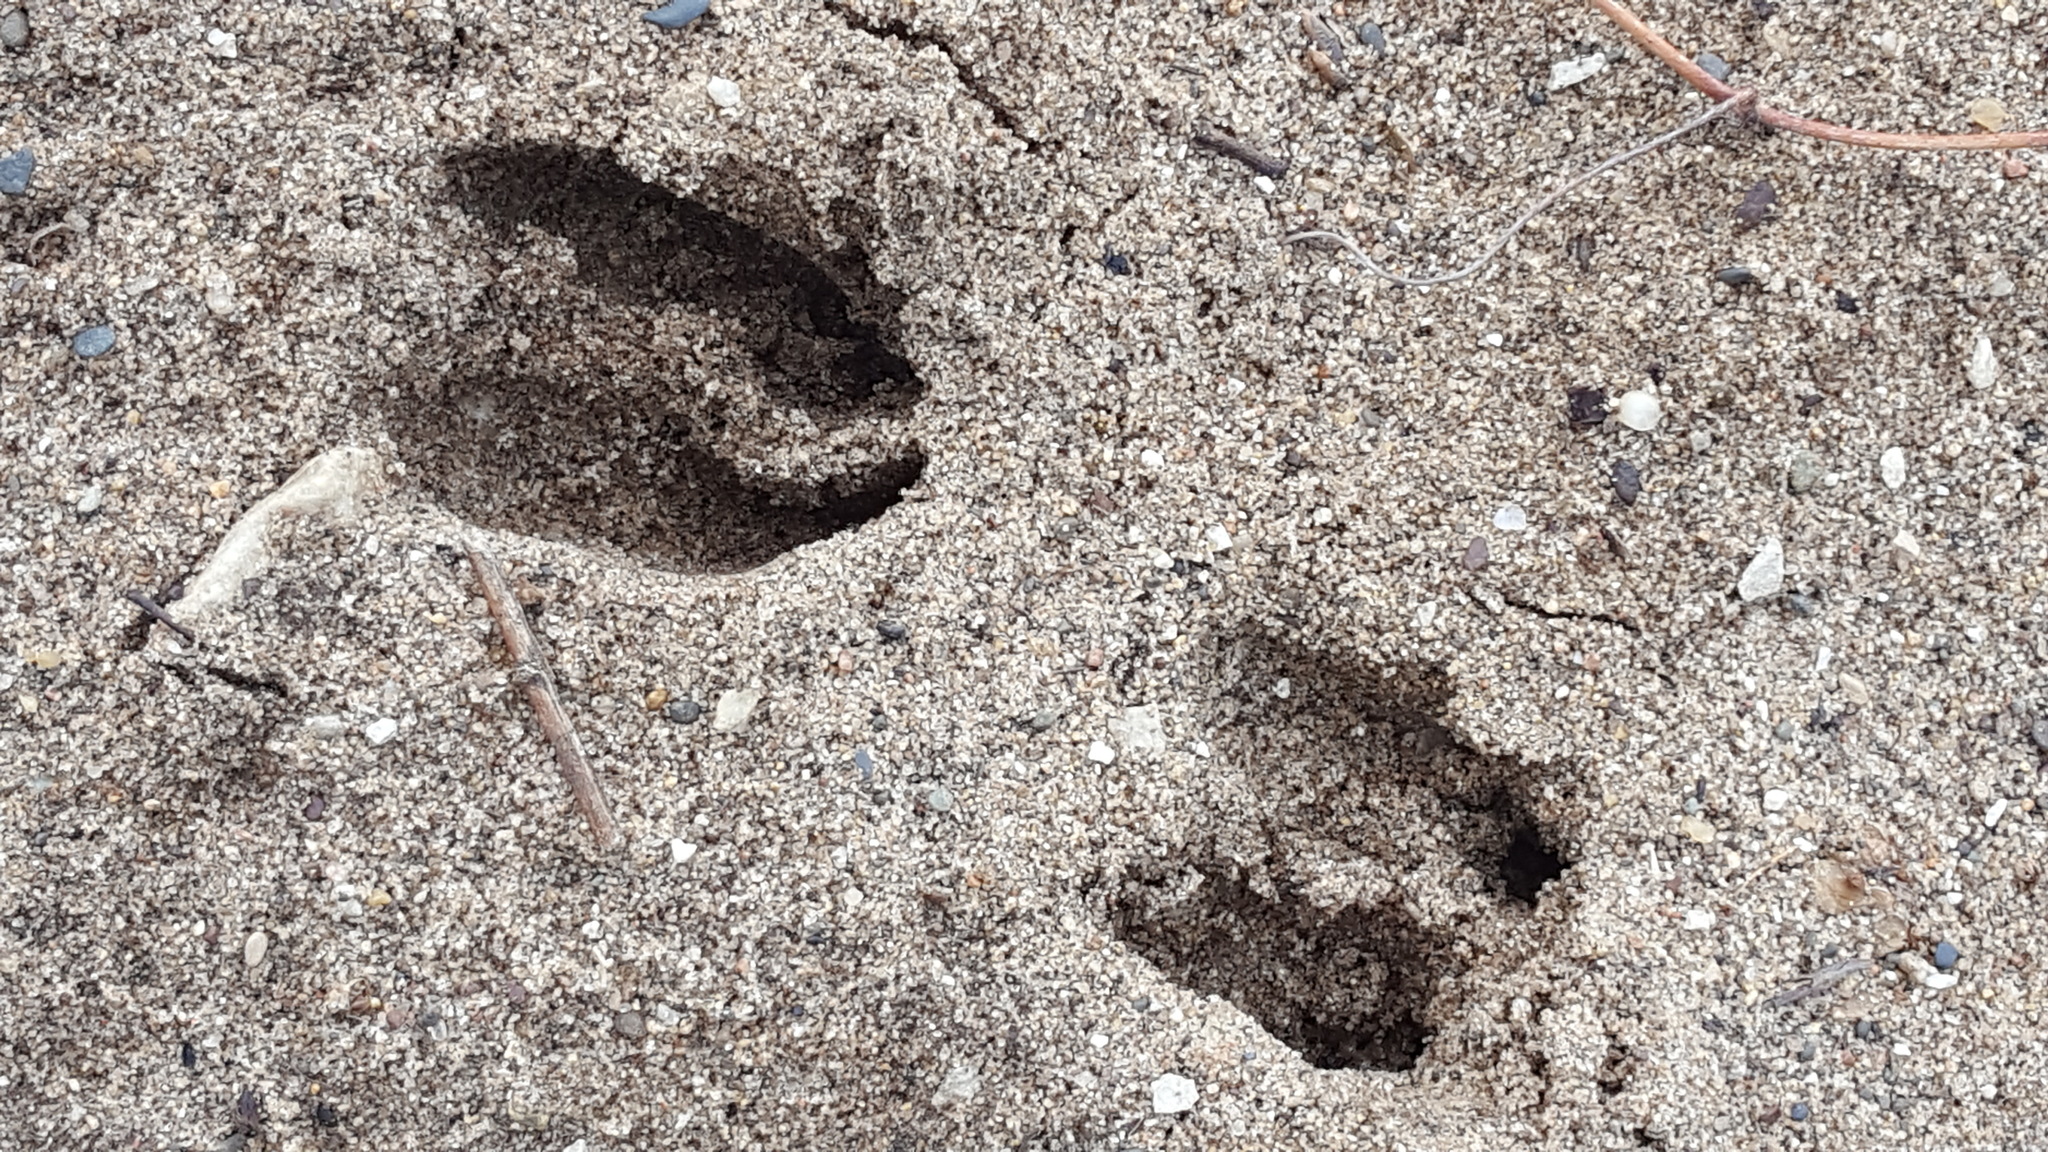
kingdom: Animalia
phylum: Chordata
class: Mammalia
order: Artiodactyla
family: Cervidae
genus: Odocoileus
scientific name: Odocoileus virginianus
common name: White-tailed deer
